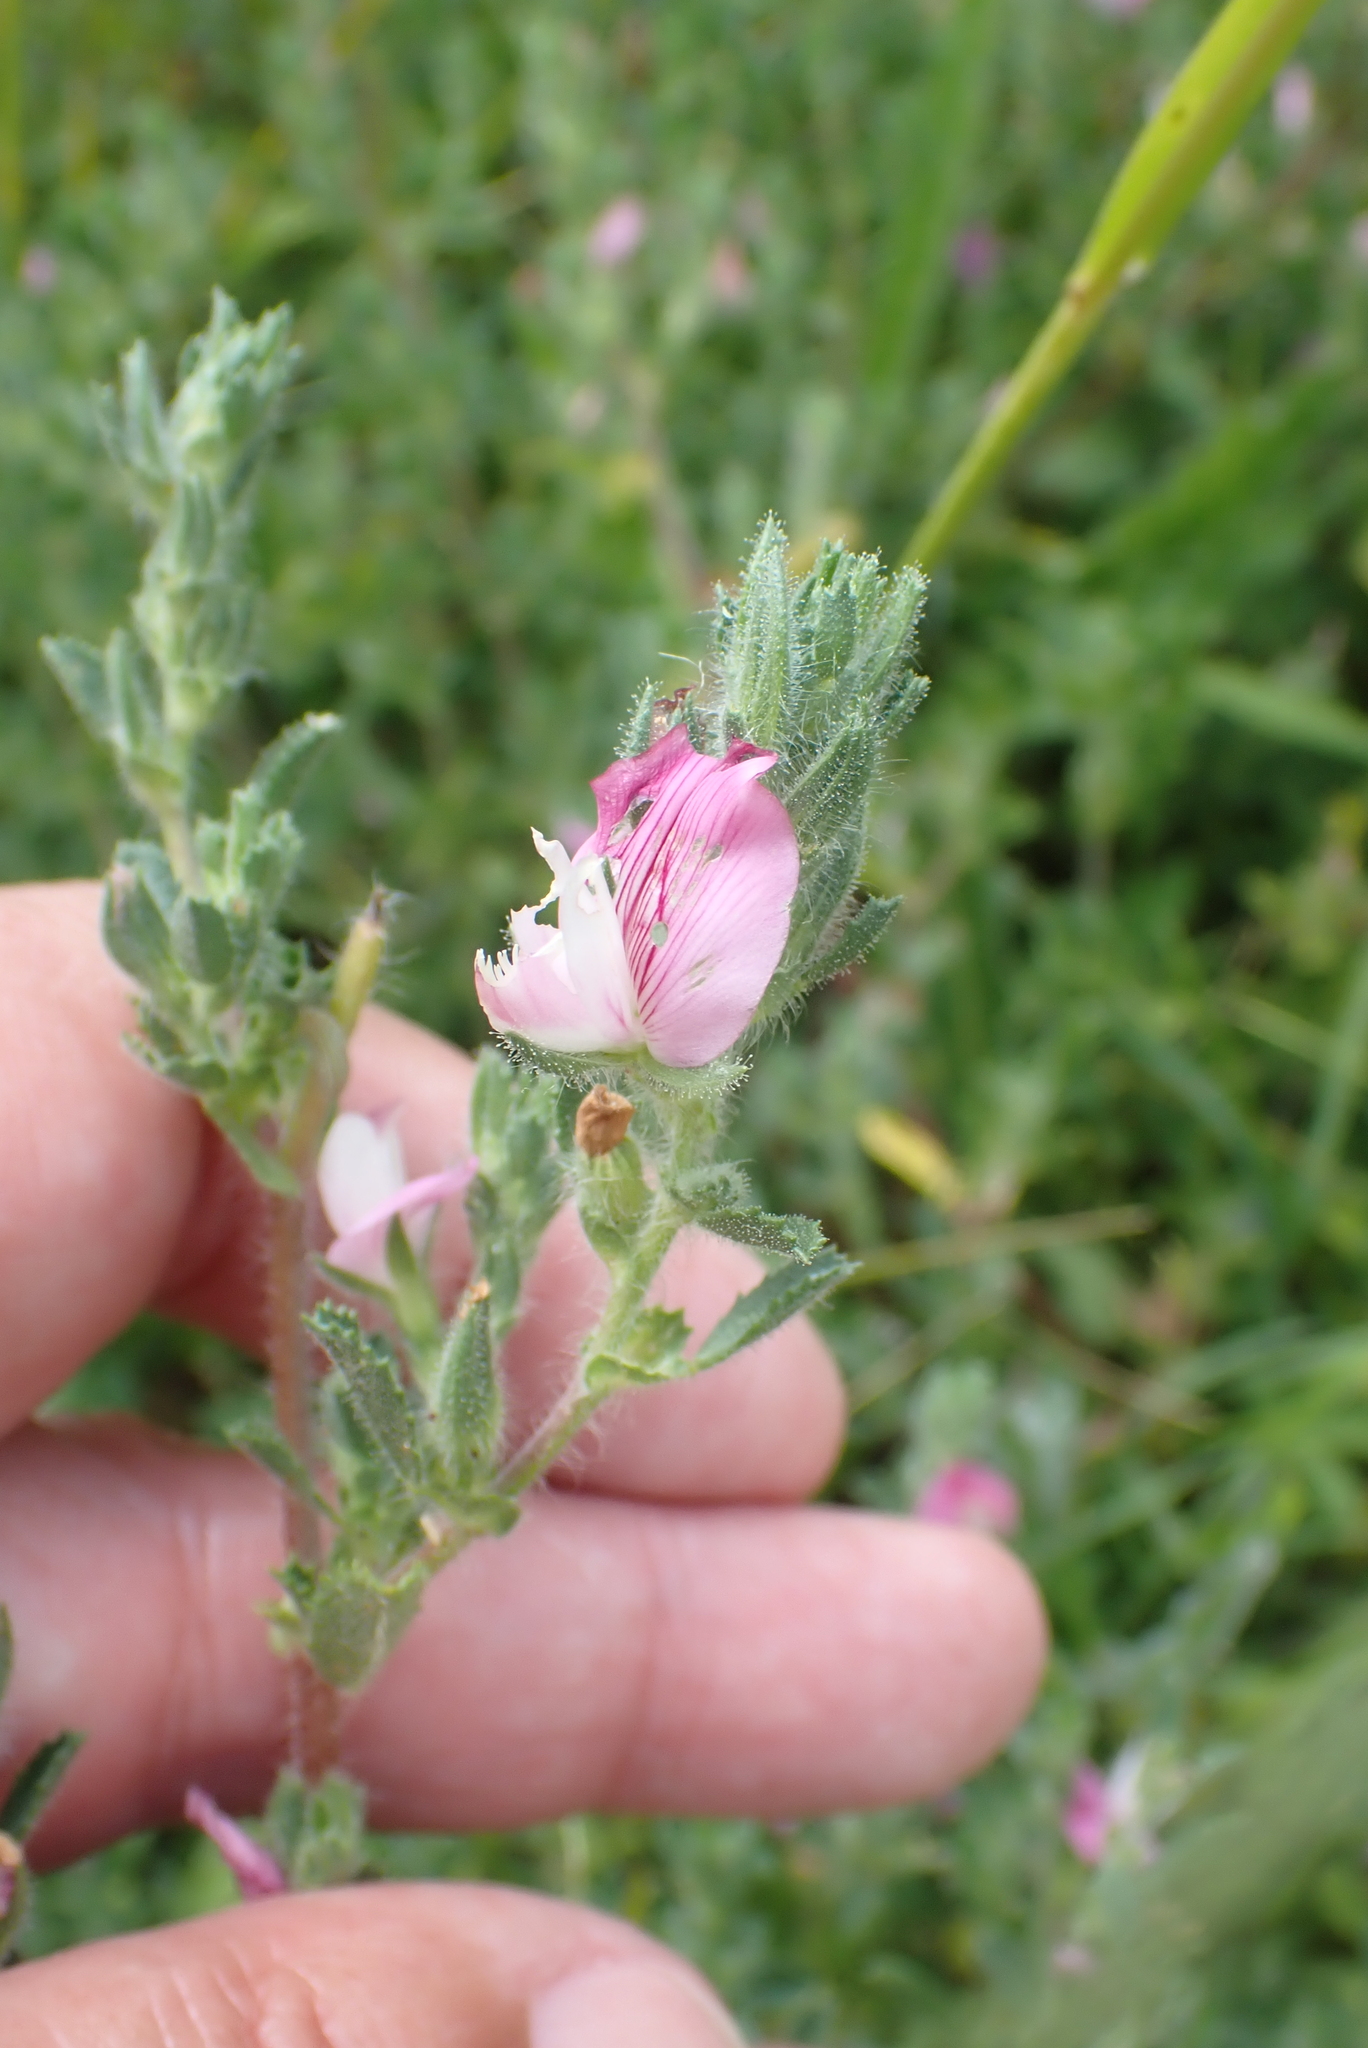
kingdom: Plantae
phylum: Tracheophyta
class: Magnoliopsida
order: Fabales
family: Fabaceae
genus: Ononis
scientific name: Ononis spinosa
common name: Spiny restharrow
